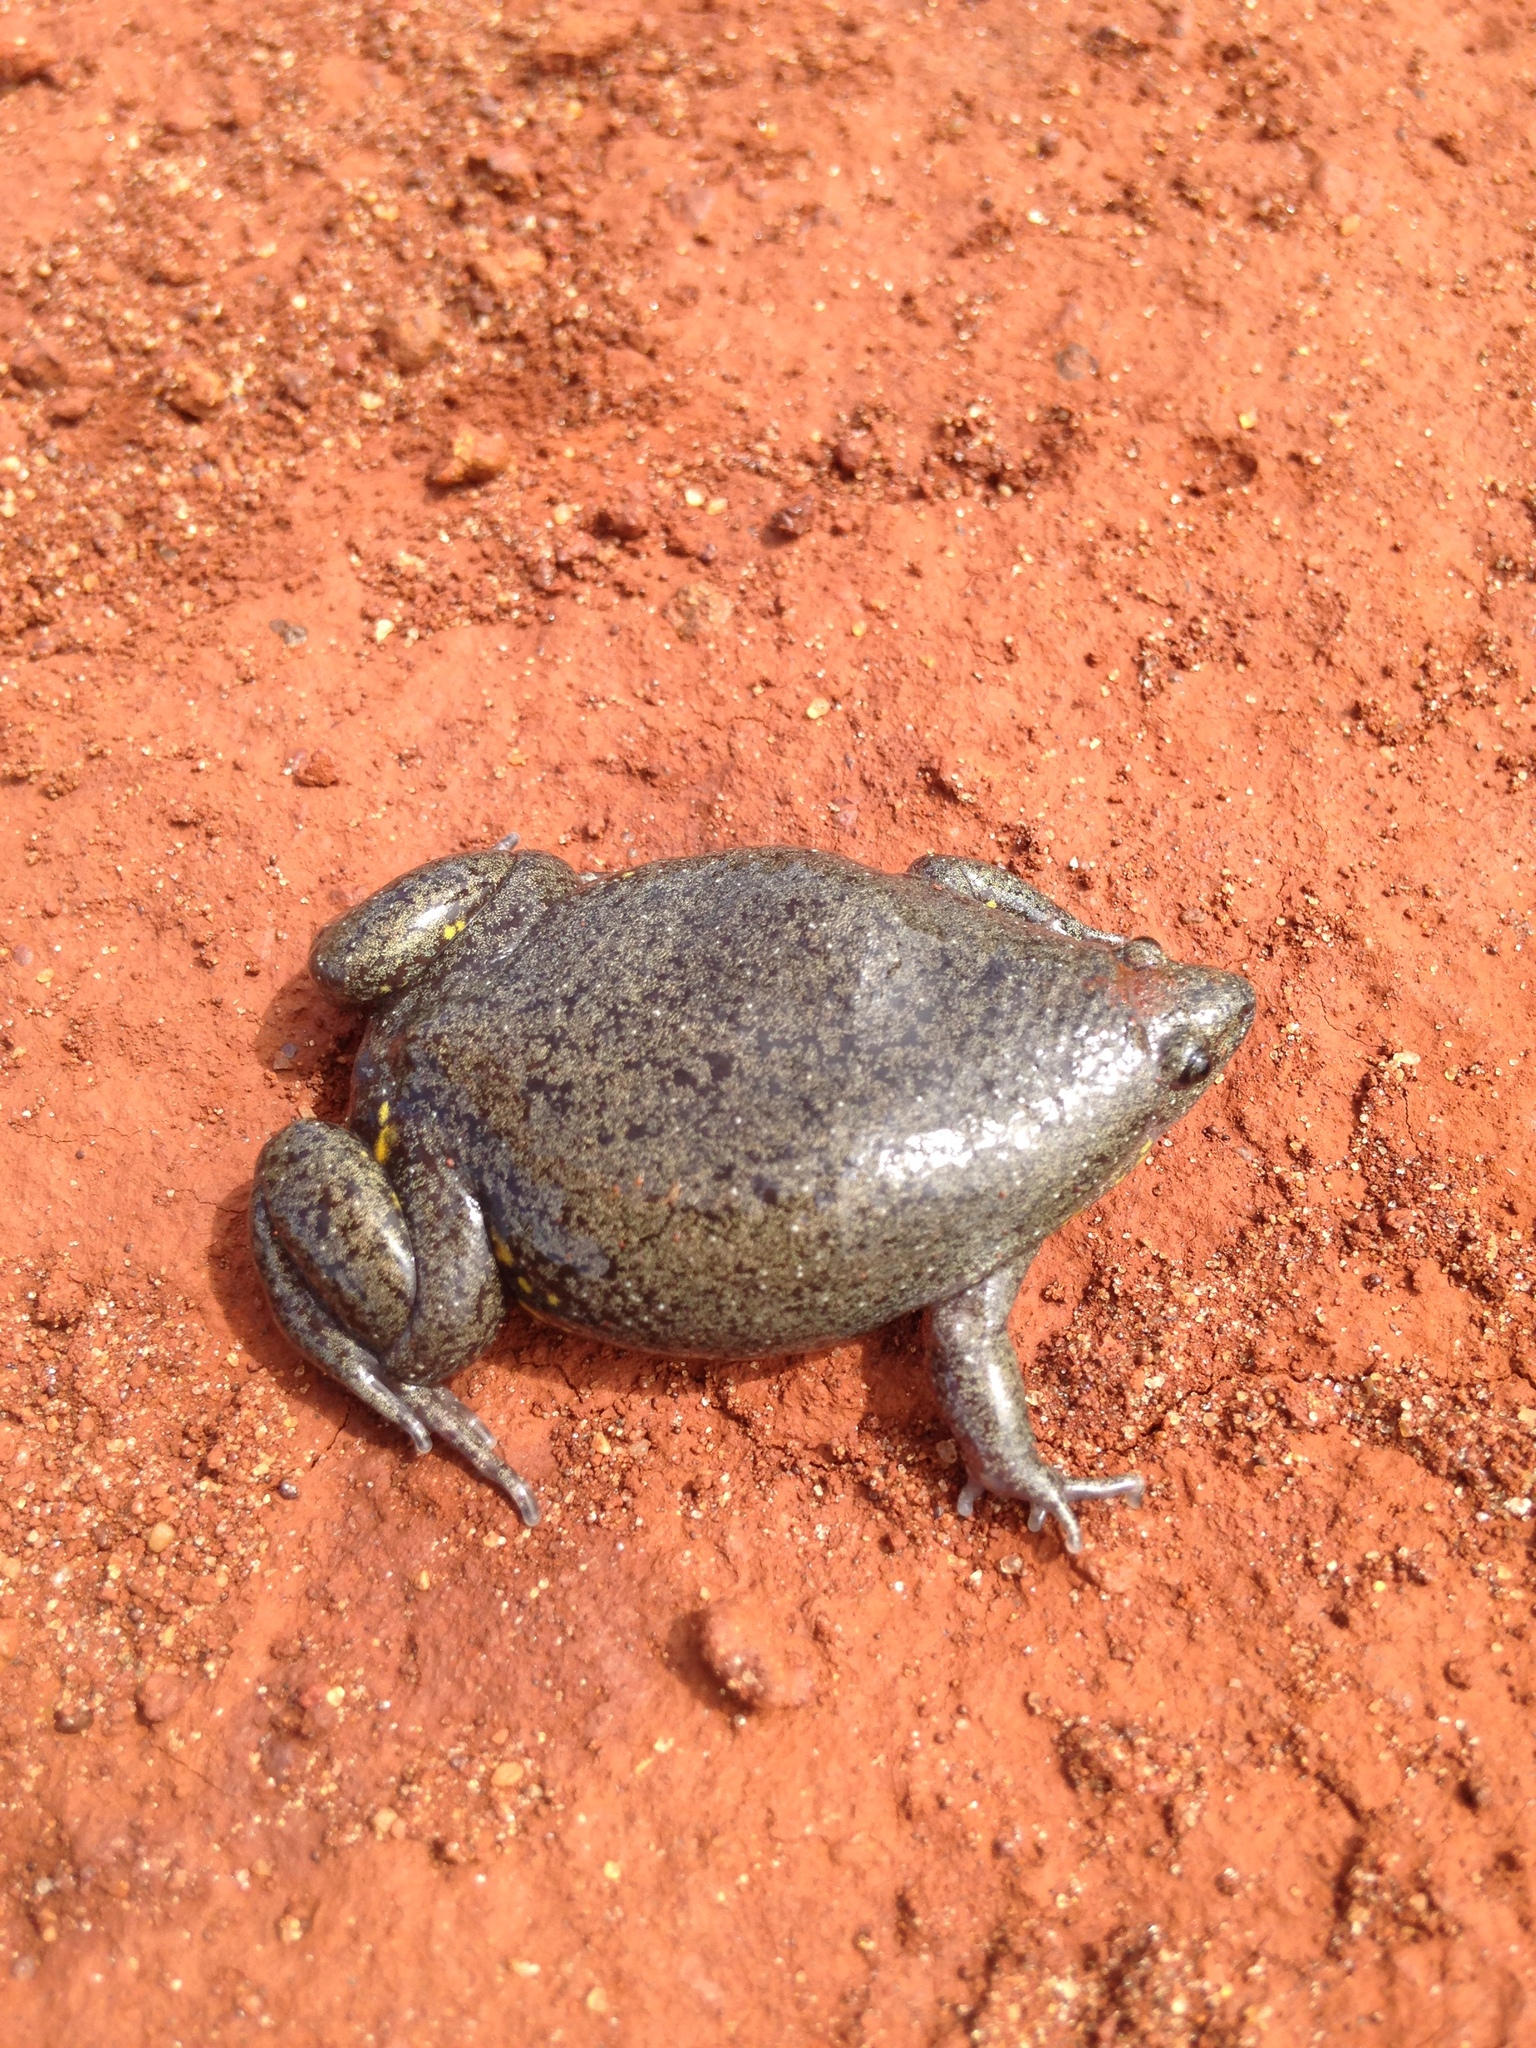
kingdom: Animalia
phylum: Chordata
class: Amphibia
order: Anura
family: Microhylidae
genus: Elachistocleis
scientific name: Elachistocleis bicolor
